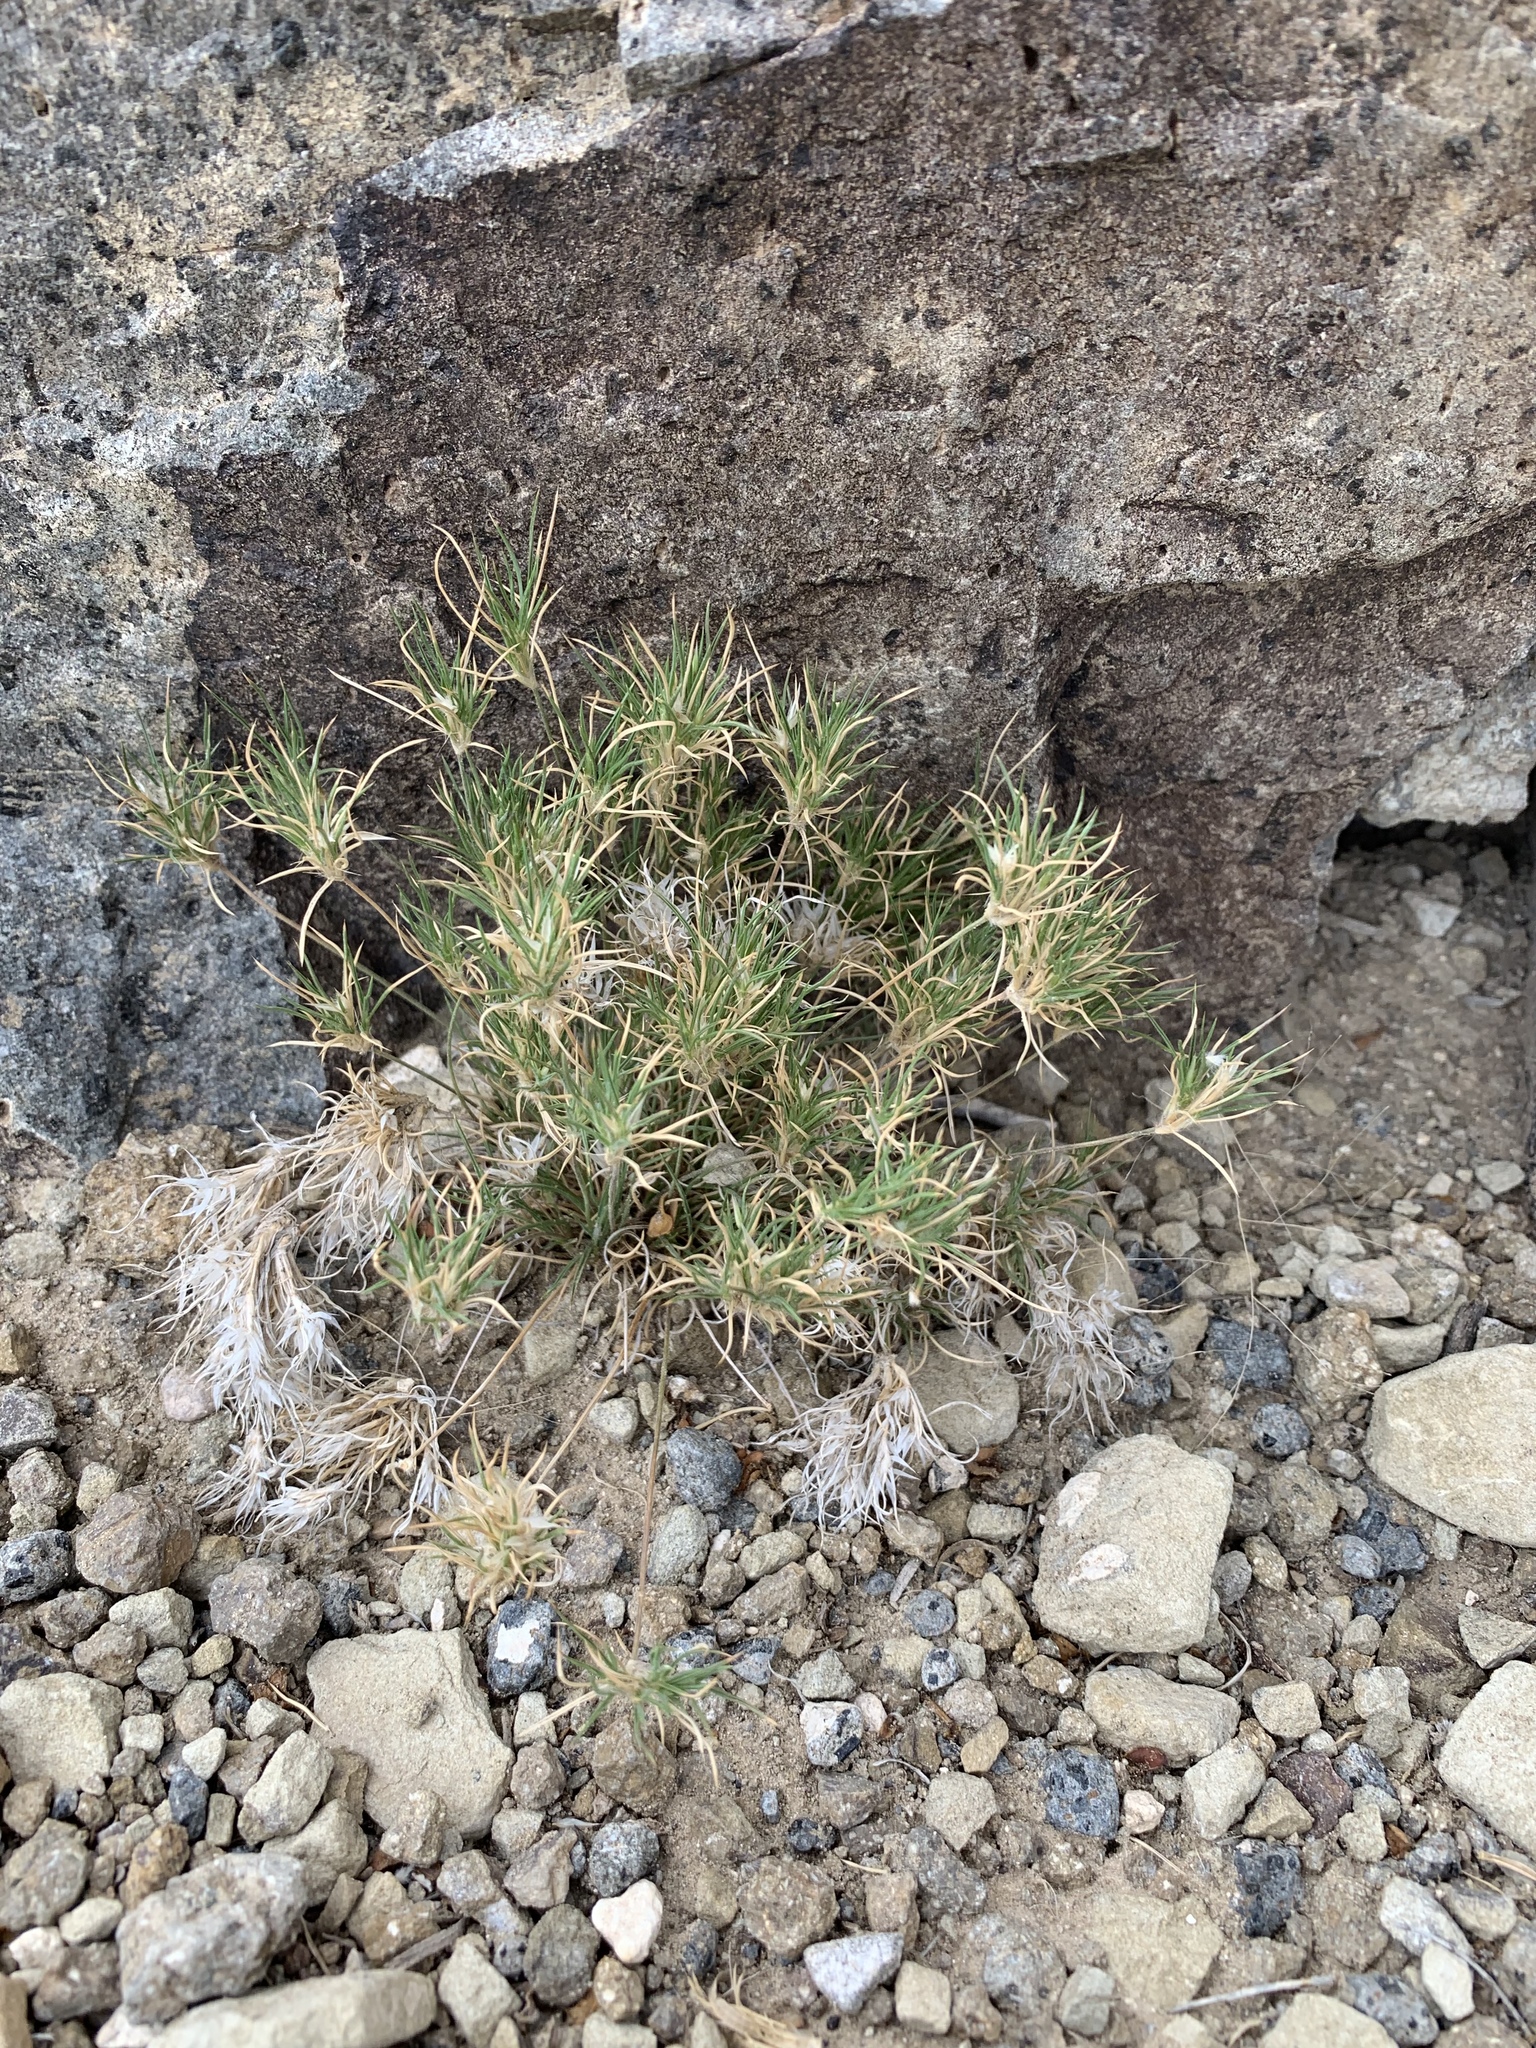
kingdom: Plantae
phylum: Tracheophyta
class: Liliopsida
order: Poales
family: Poaceae
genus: Dasyochloa
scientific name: Dasyochloa pulchella
